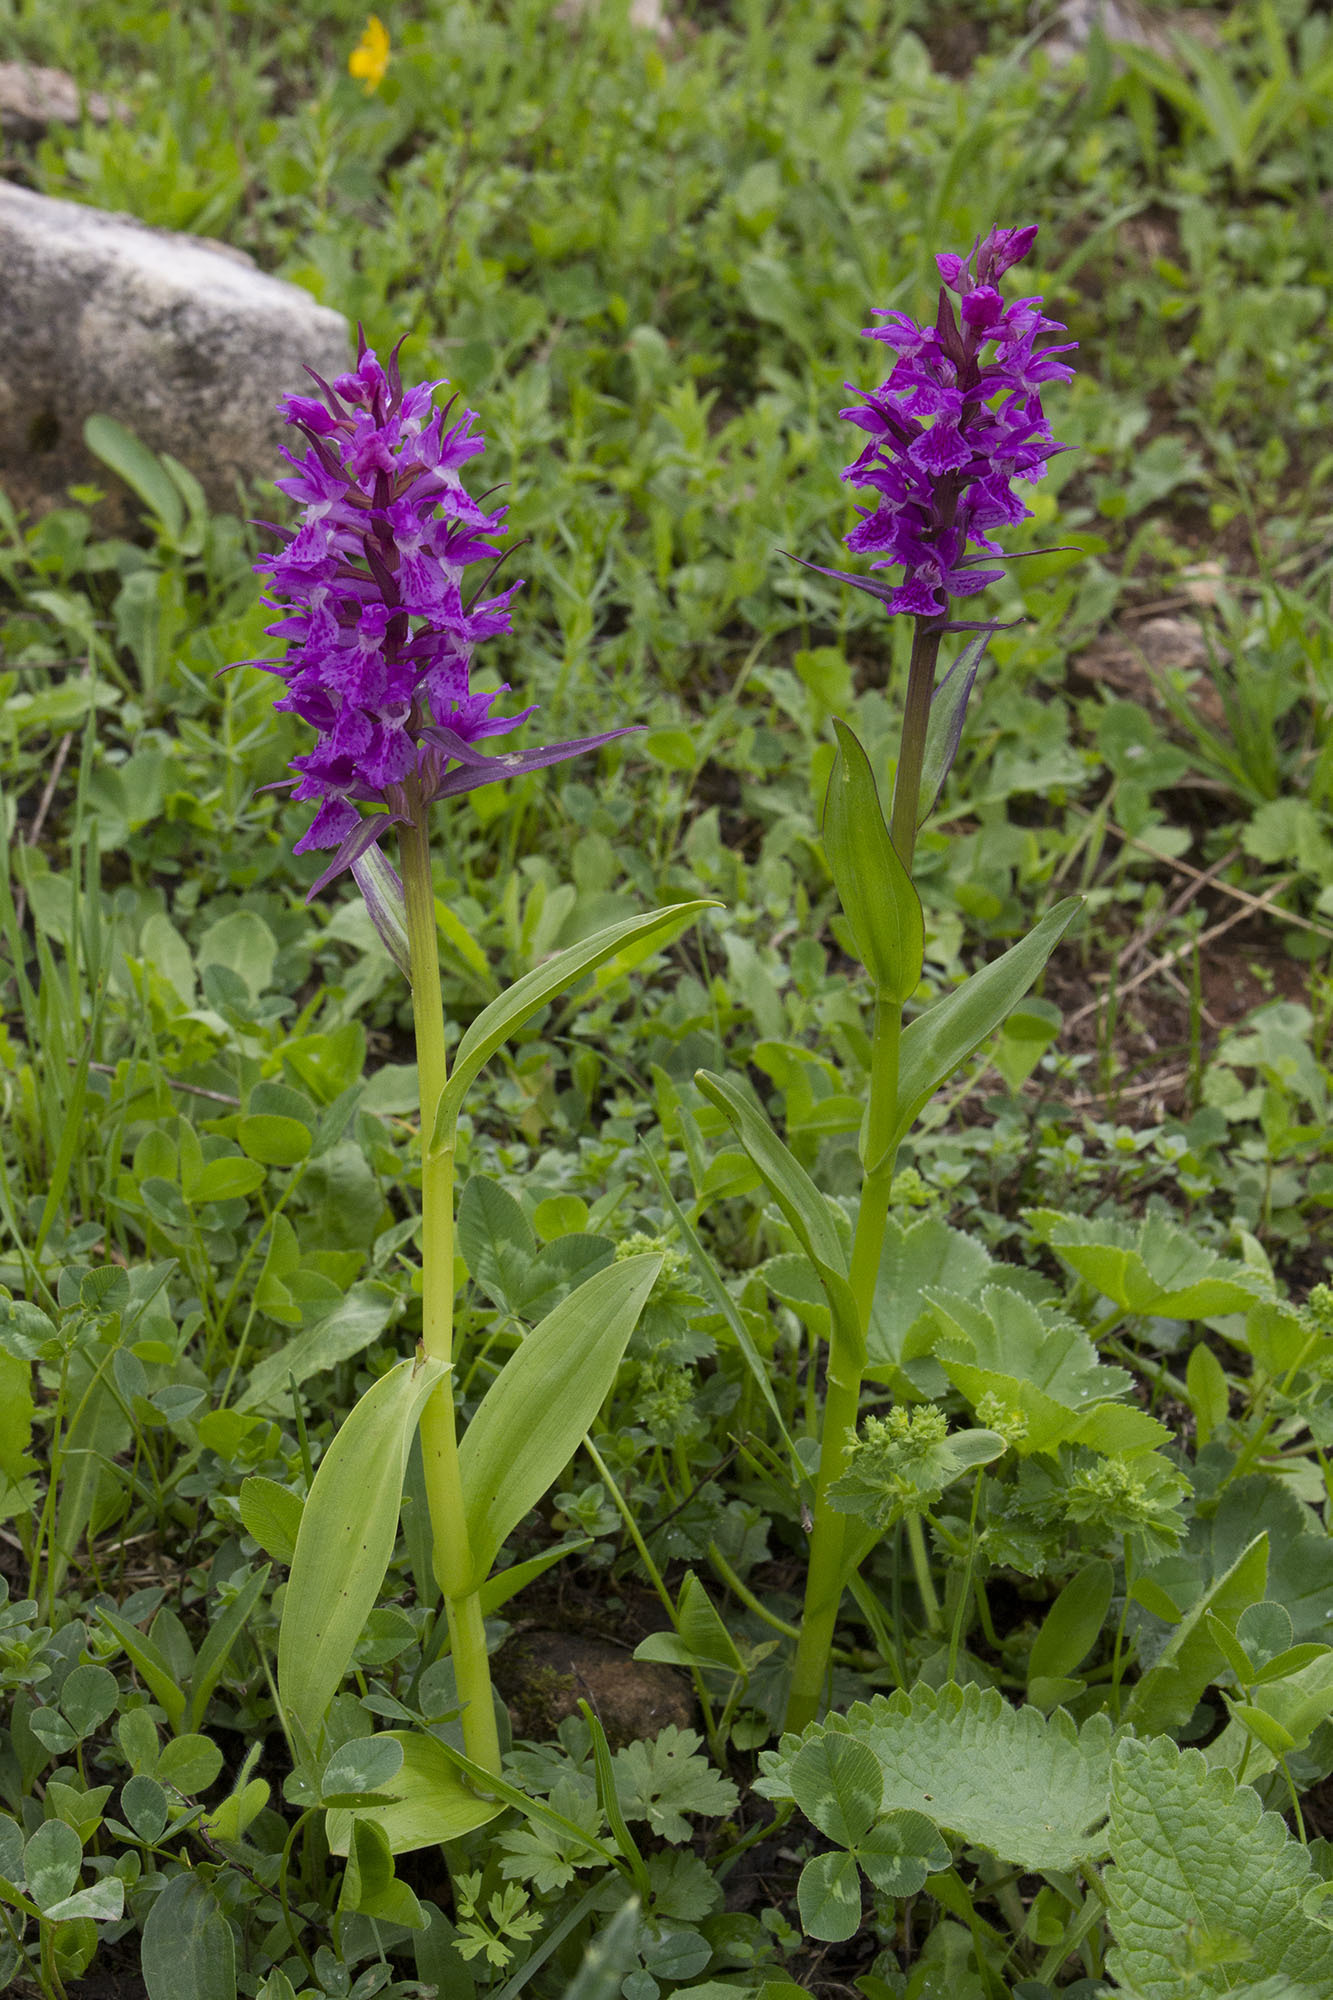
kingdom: Plantae
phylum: Tracheophyta
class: Liliopsida
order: Asparagales
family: Orchidaceae
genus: Dactylorhiza
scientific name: Dactylorhiza euxina
